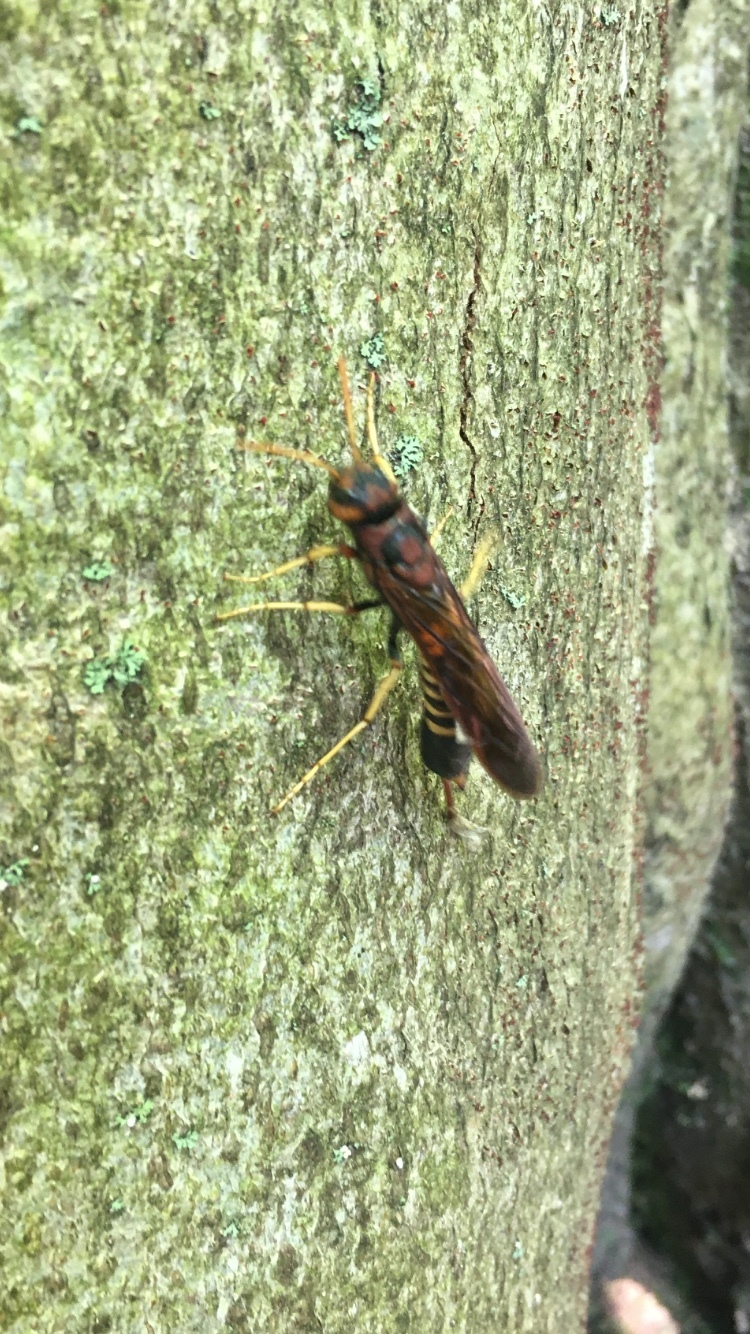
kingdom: Animalia
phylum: Arthropoda
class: Insecta
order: Hymenoptera
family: Siricidae
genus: Tremex
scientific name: Tremex columba
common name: Wasp
